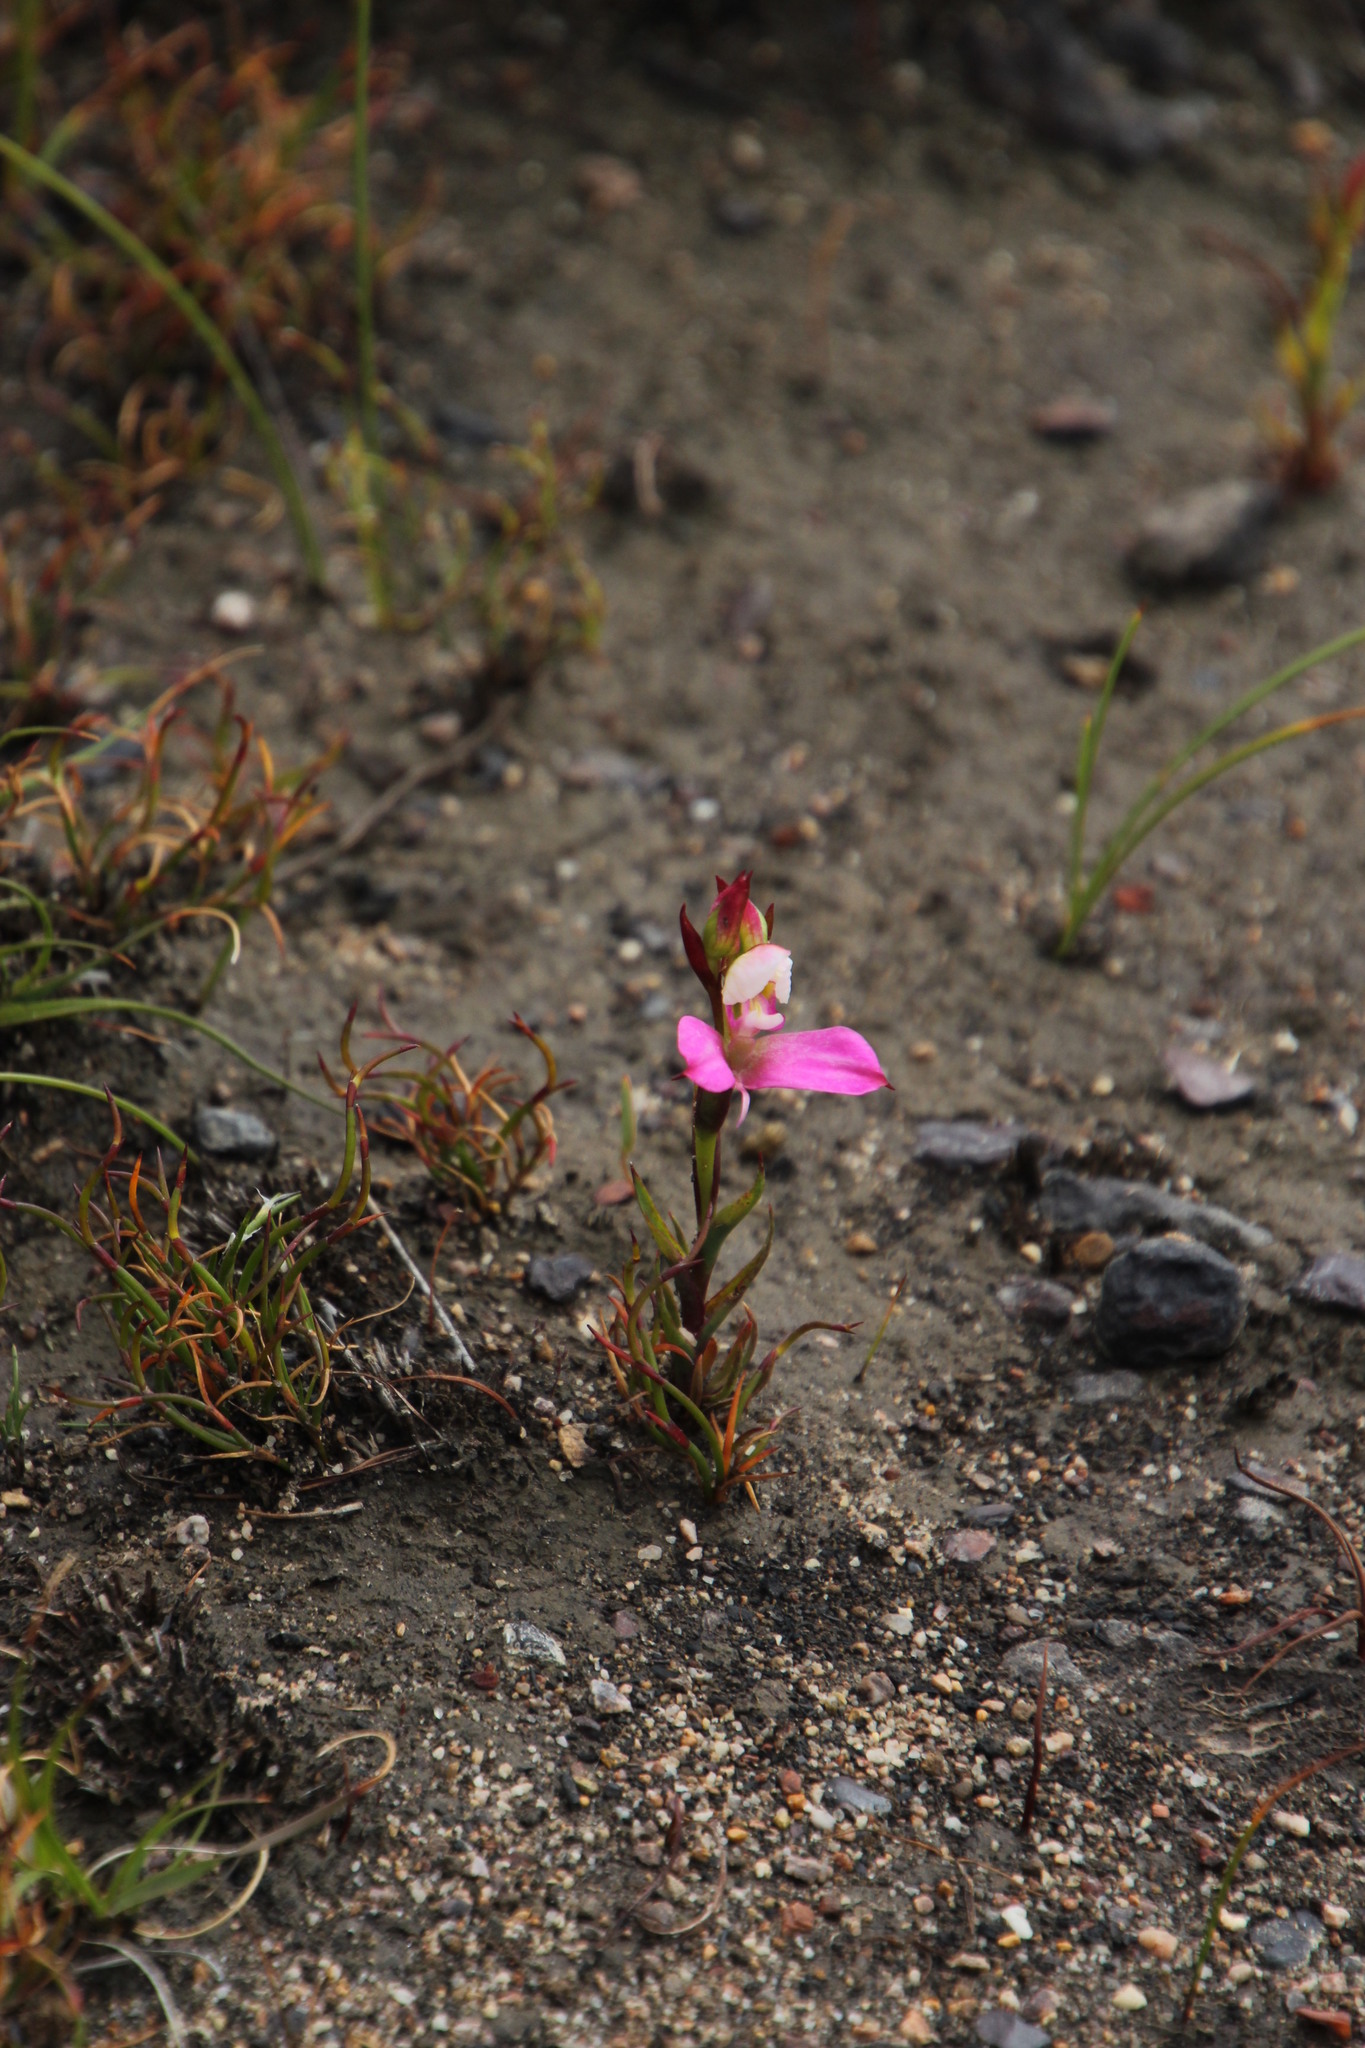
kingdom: Plantae
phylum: Tracheophyta
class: Liliopsida
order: Asparagales
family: Orchidaceae
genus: Disa
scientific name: Disa filicornis
